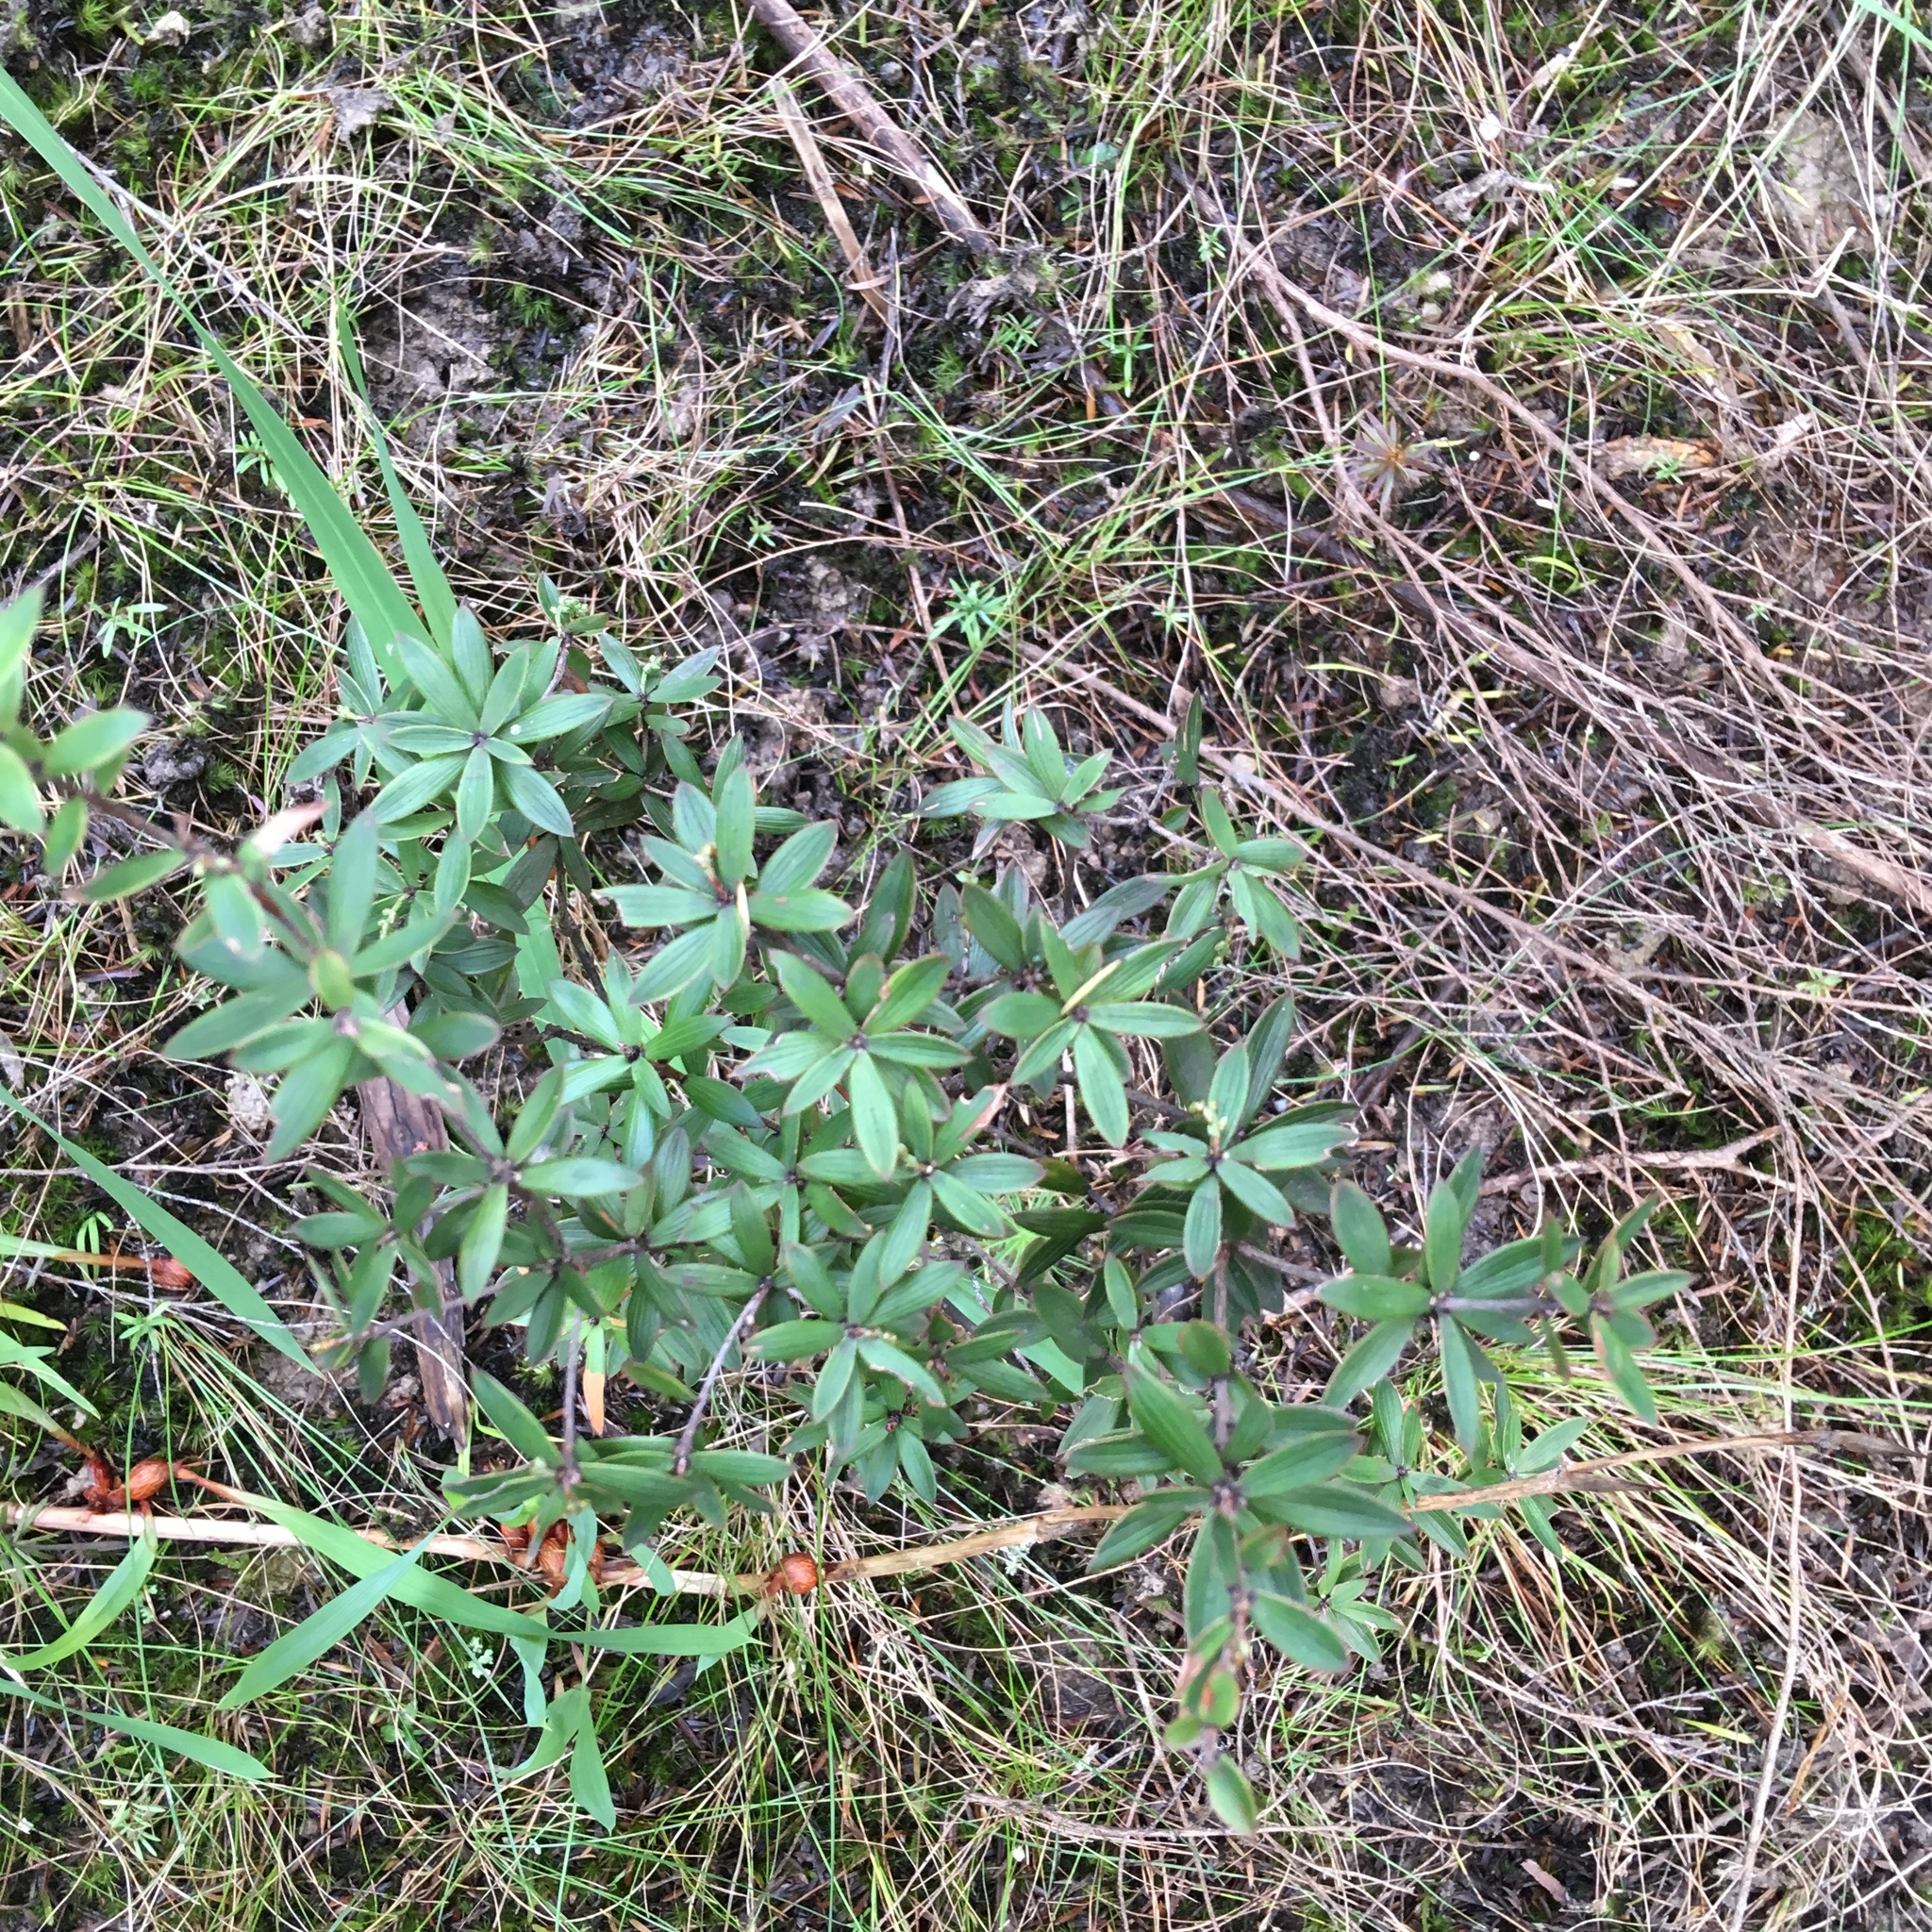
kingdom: Plantae
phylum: Tracheophyta
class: Magnoliopsida
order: Ericales
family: Ericaceae
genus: Leucopogon
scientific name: Leucopogon fasciculatus
